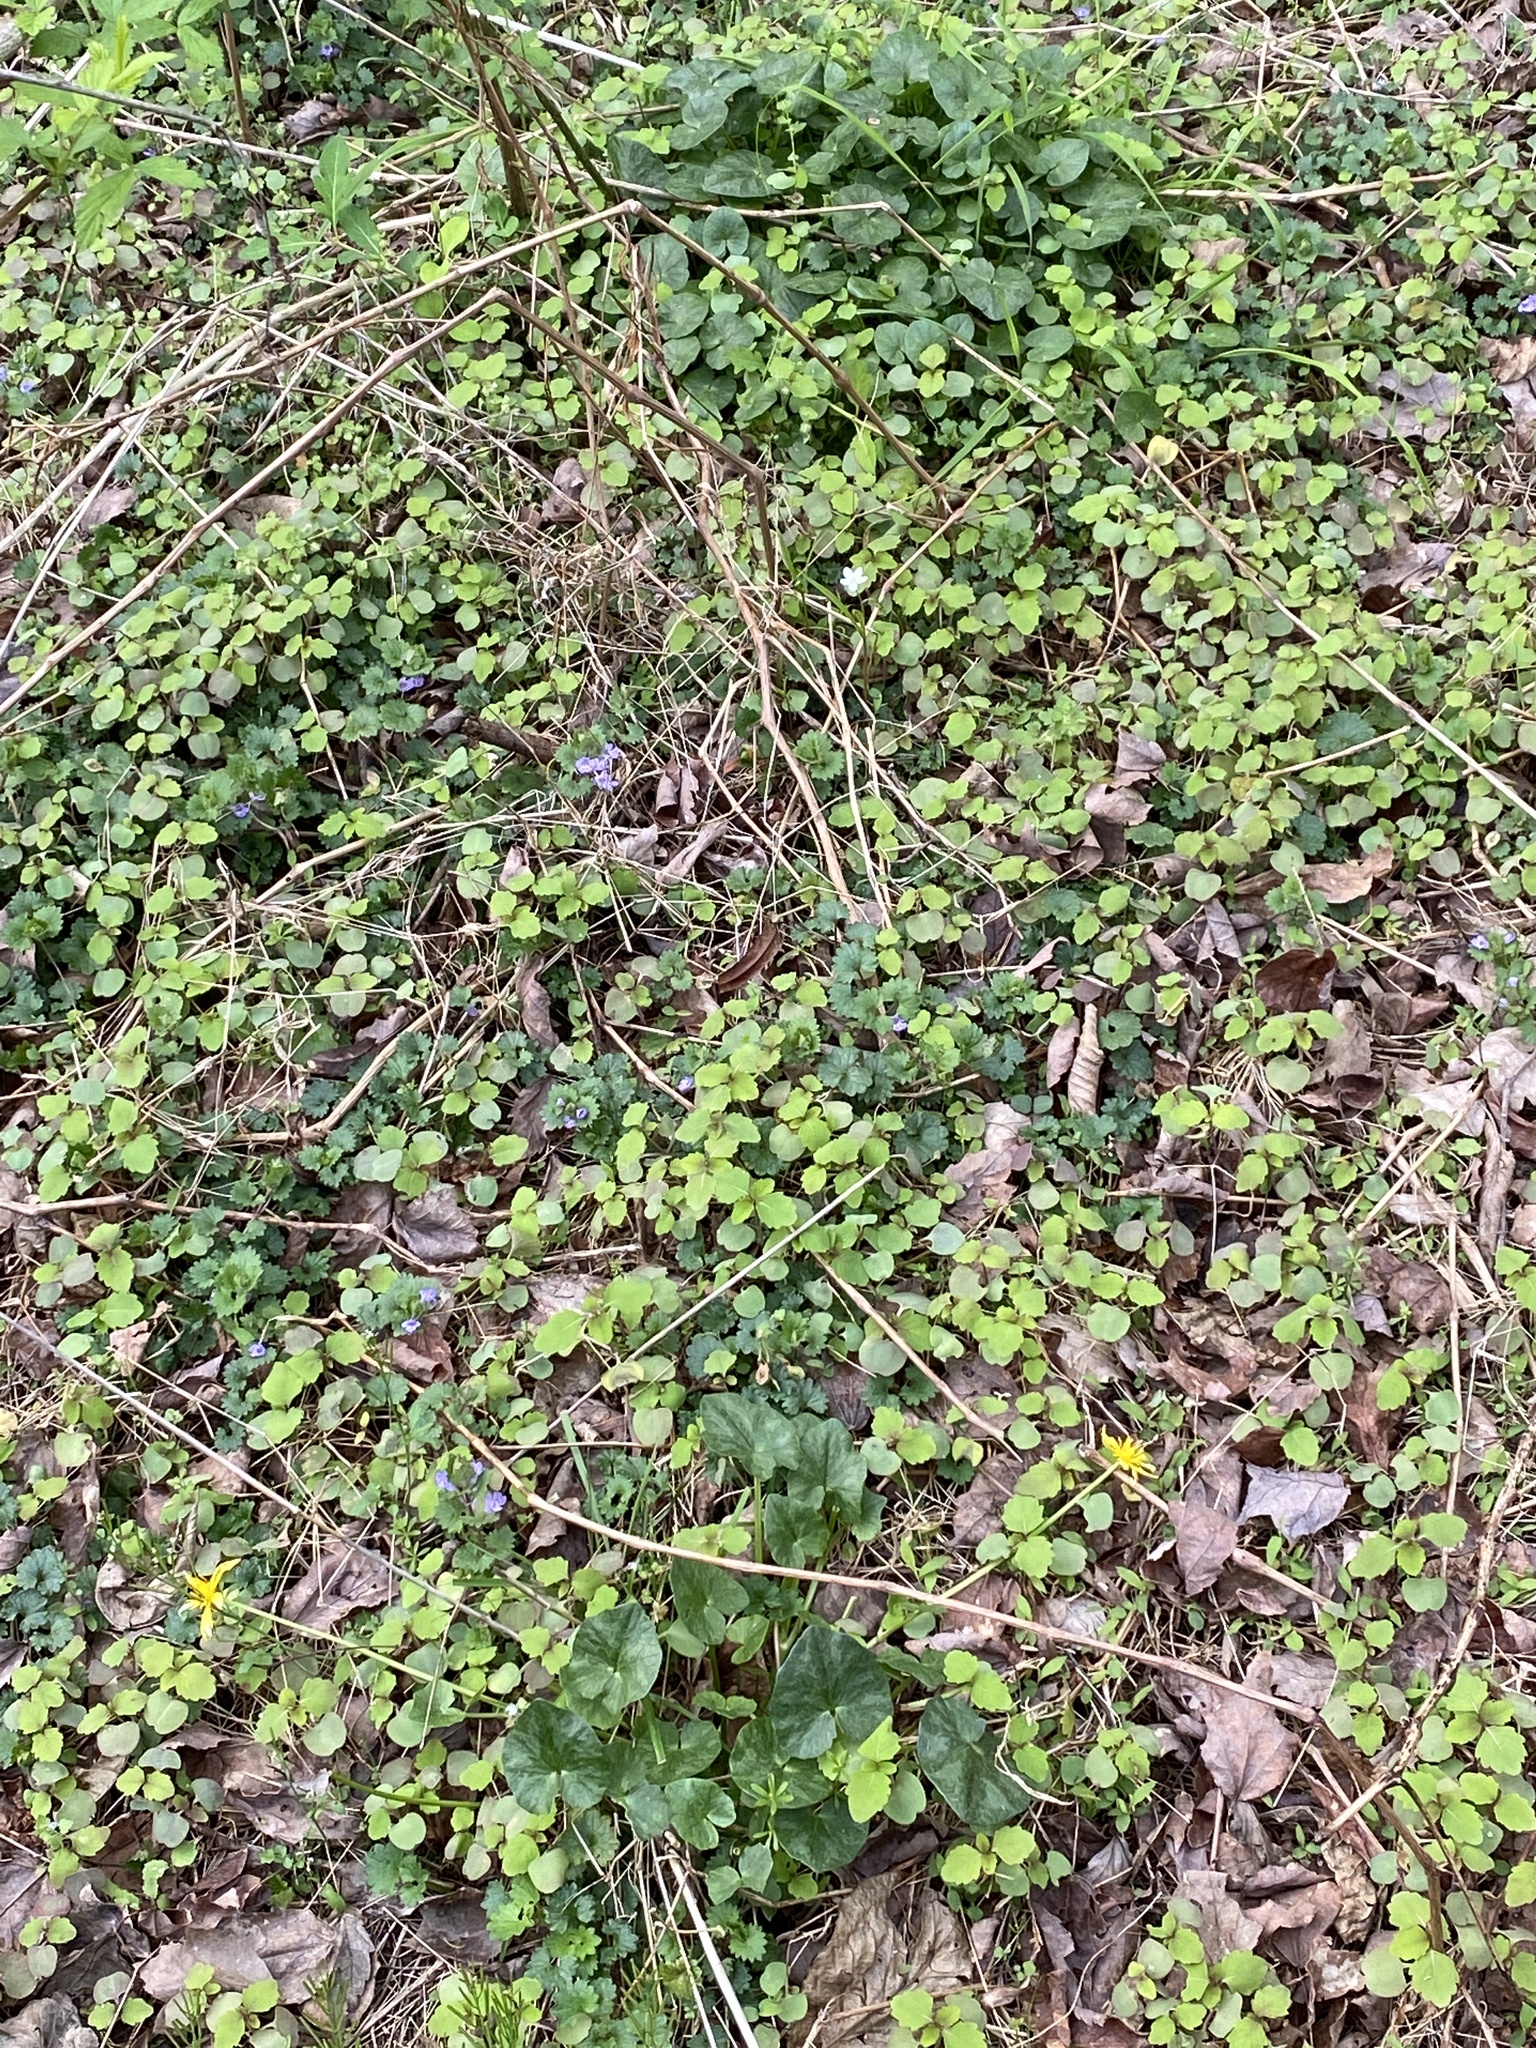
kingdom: Plantae
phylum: Tracheophyta
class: Magnoliopsida
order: Ranunculales
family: Ranunculaceae
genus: Ficaria
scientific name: Ficaria verna
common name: Lesser celandine
